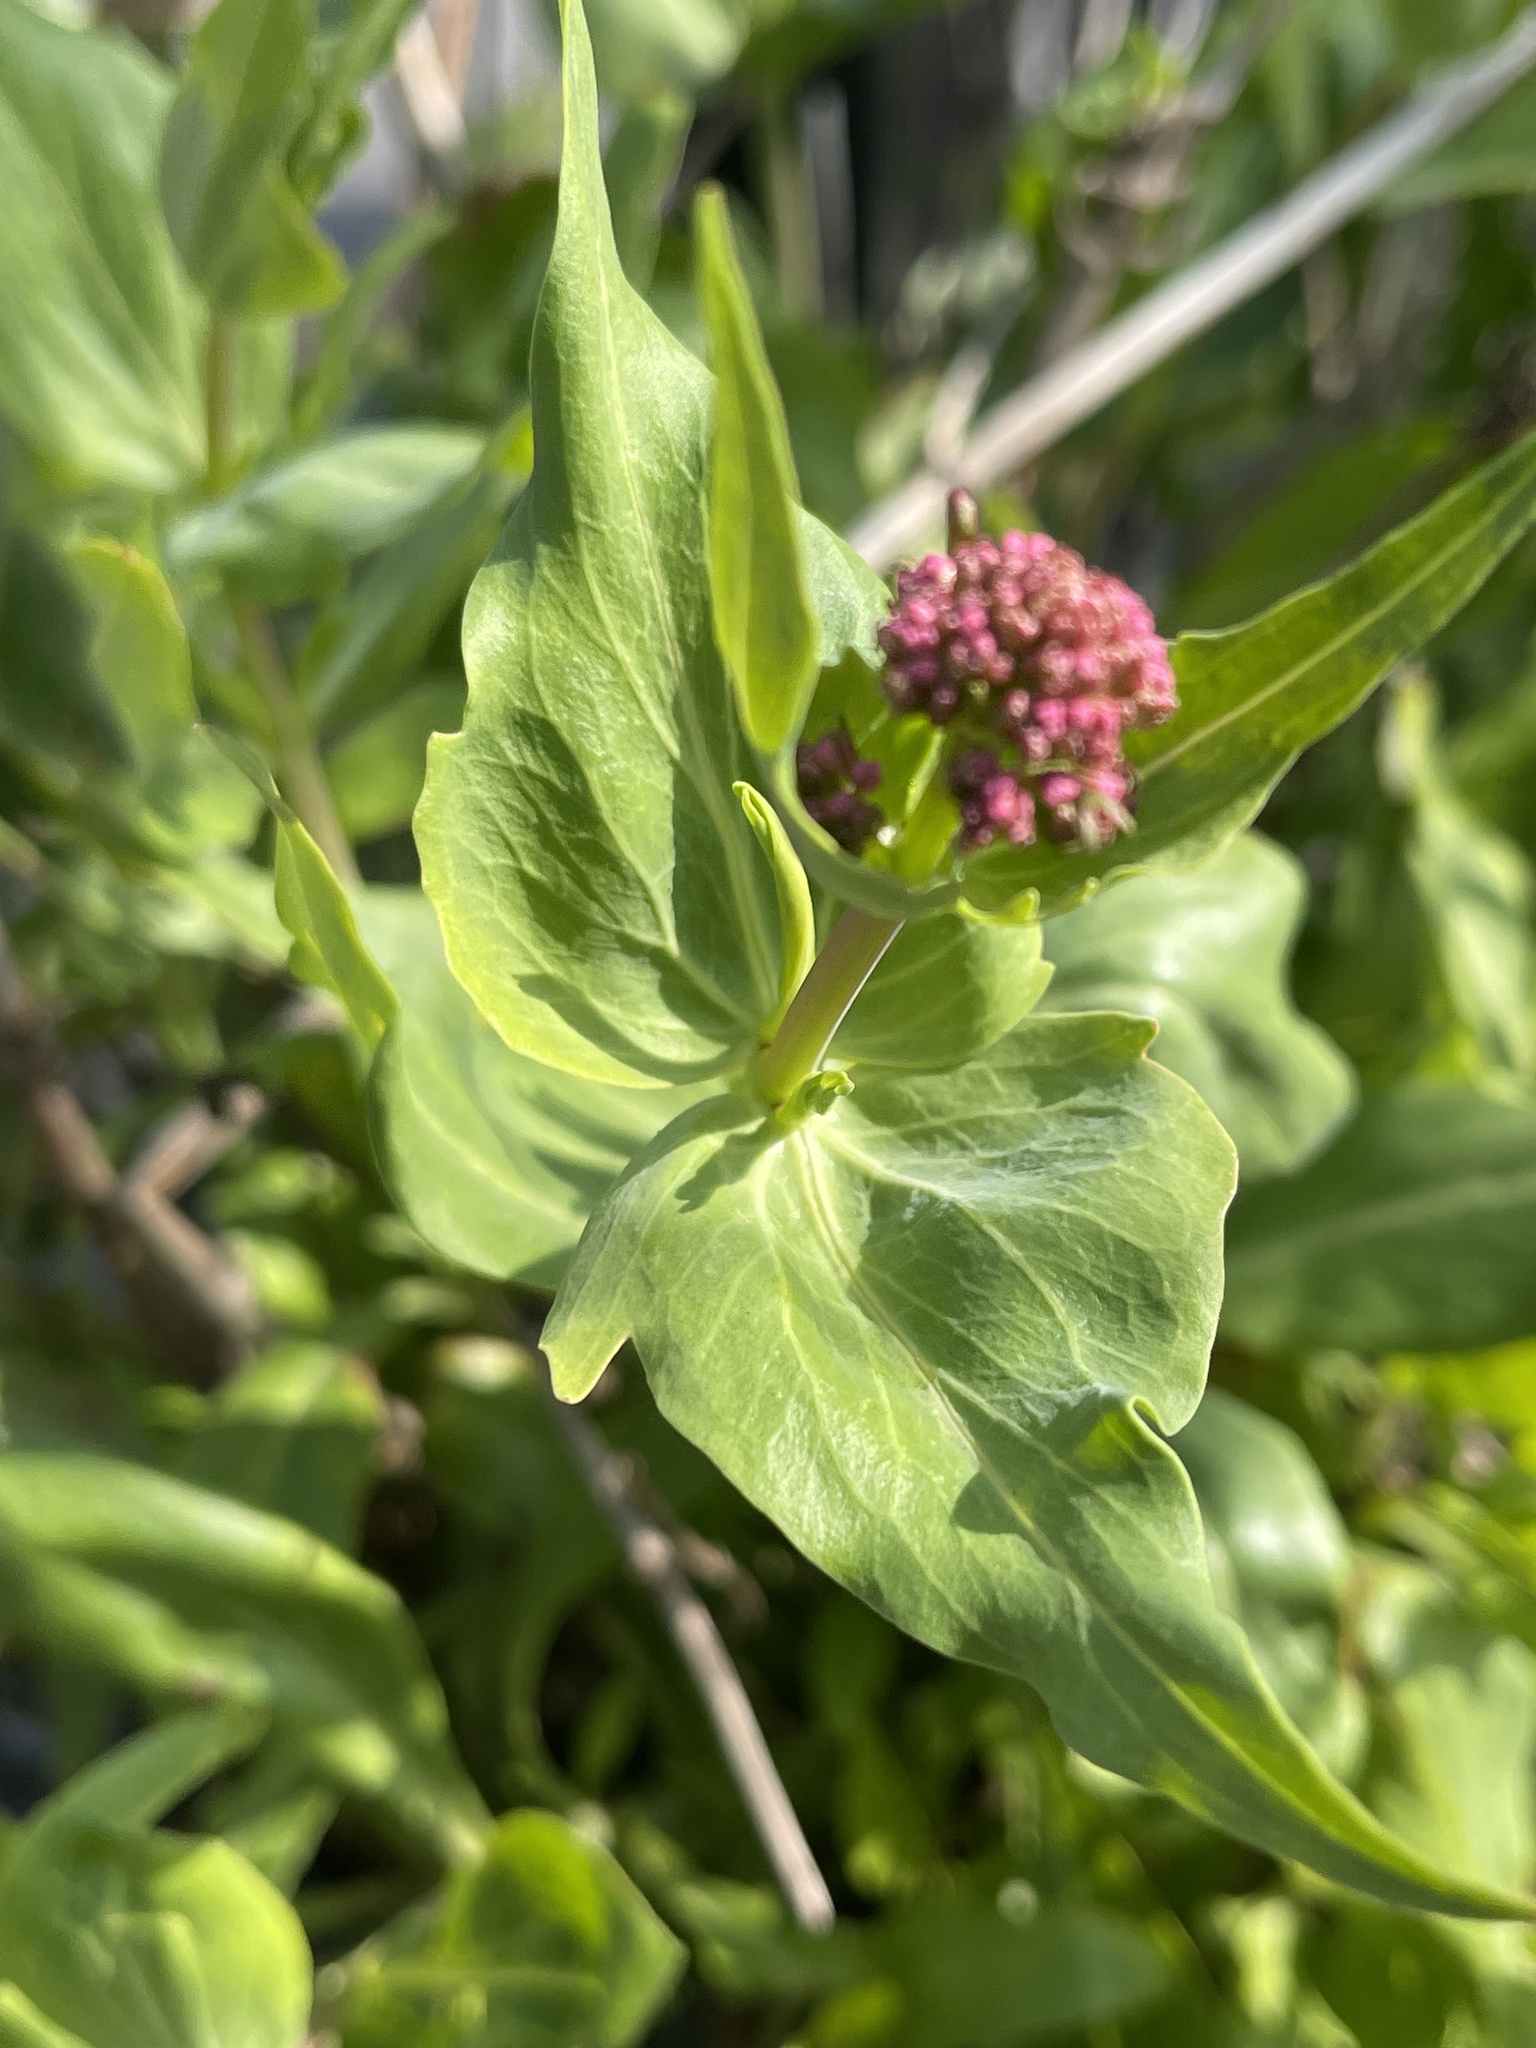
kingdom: Plantae
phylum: Tracheophyta
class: Magnoliopsida
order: Dipsacales
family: Caprifoliaceae
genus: Centranthus
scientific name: Centranthus ruber
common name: Red valerian
